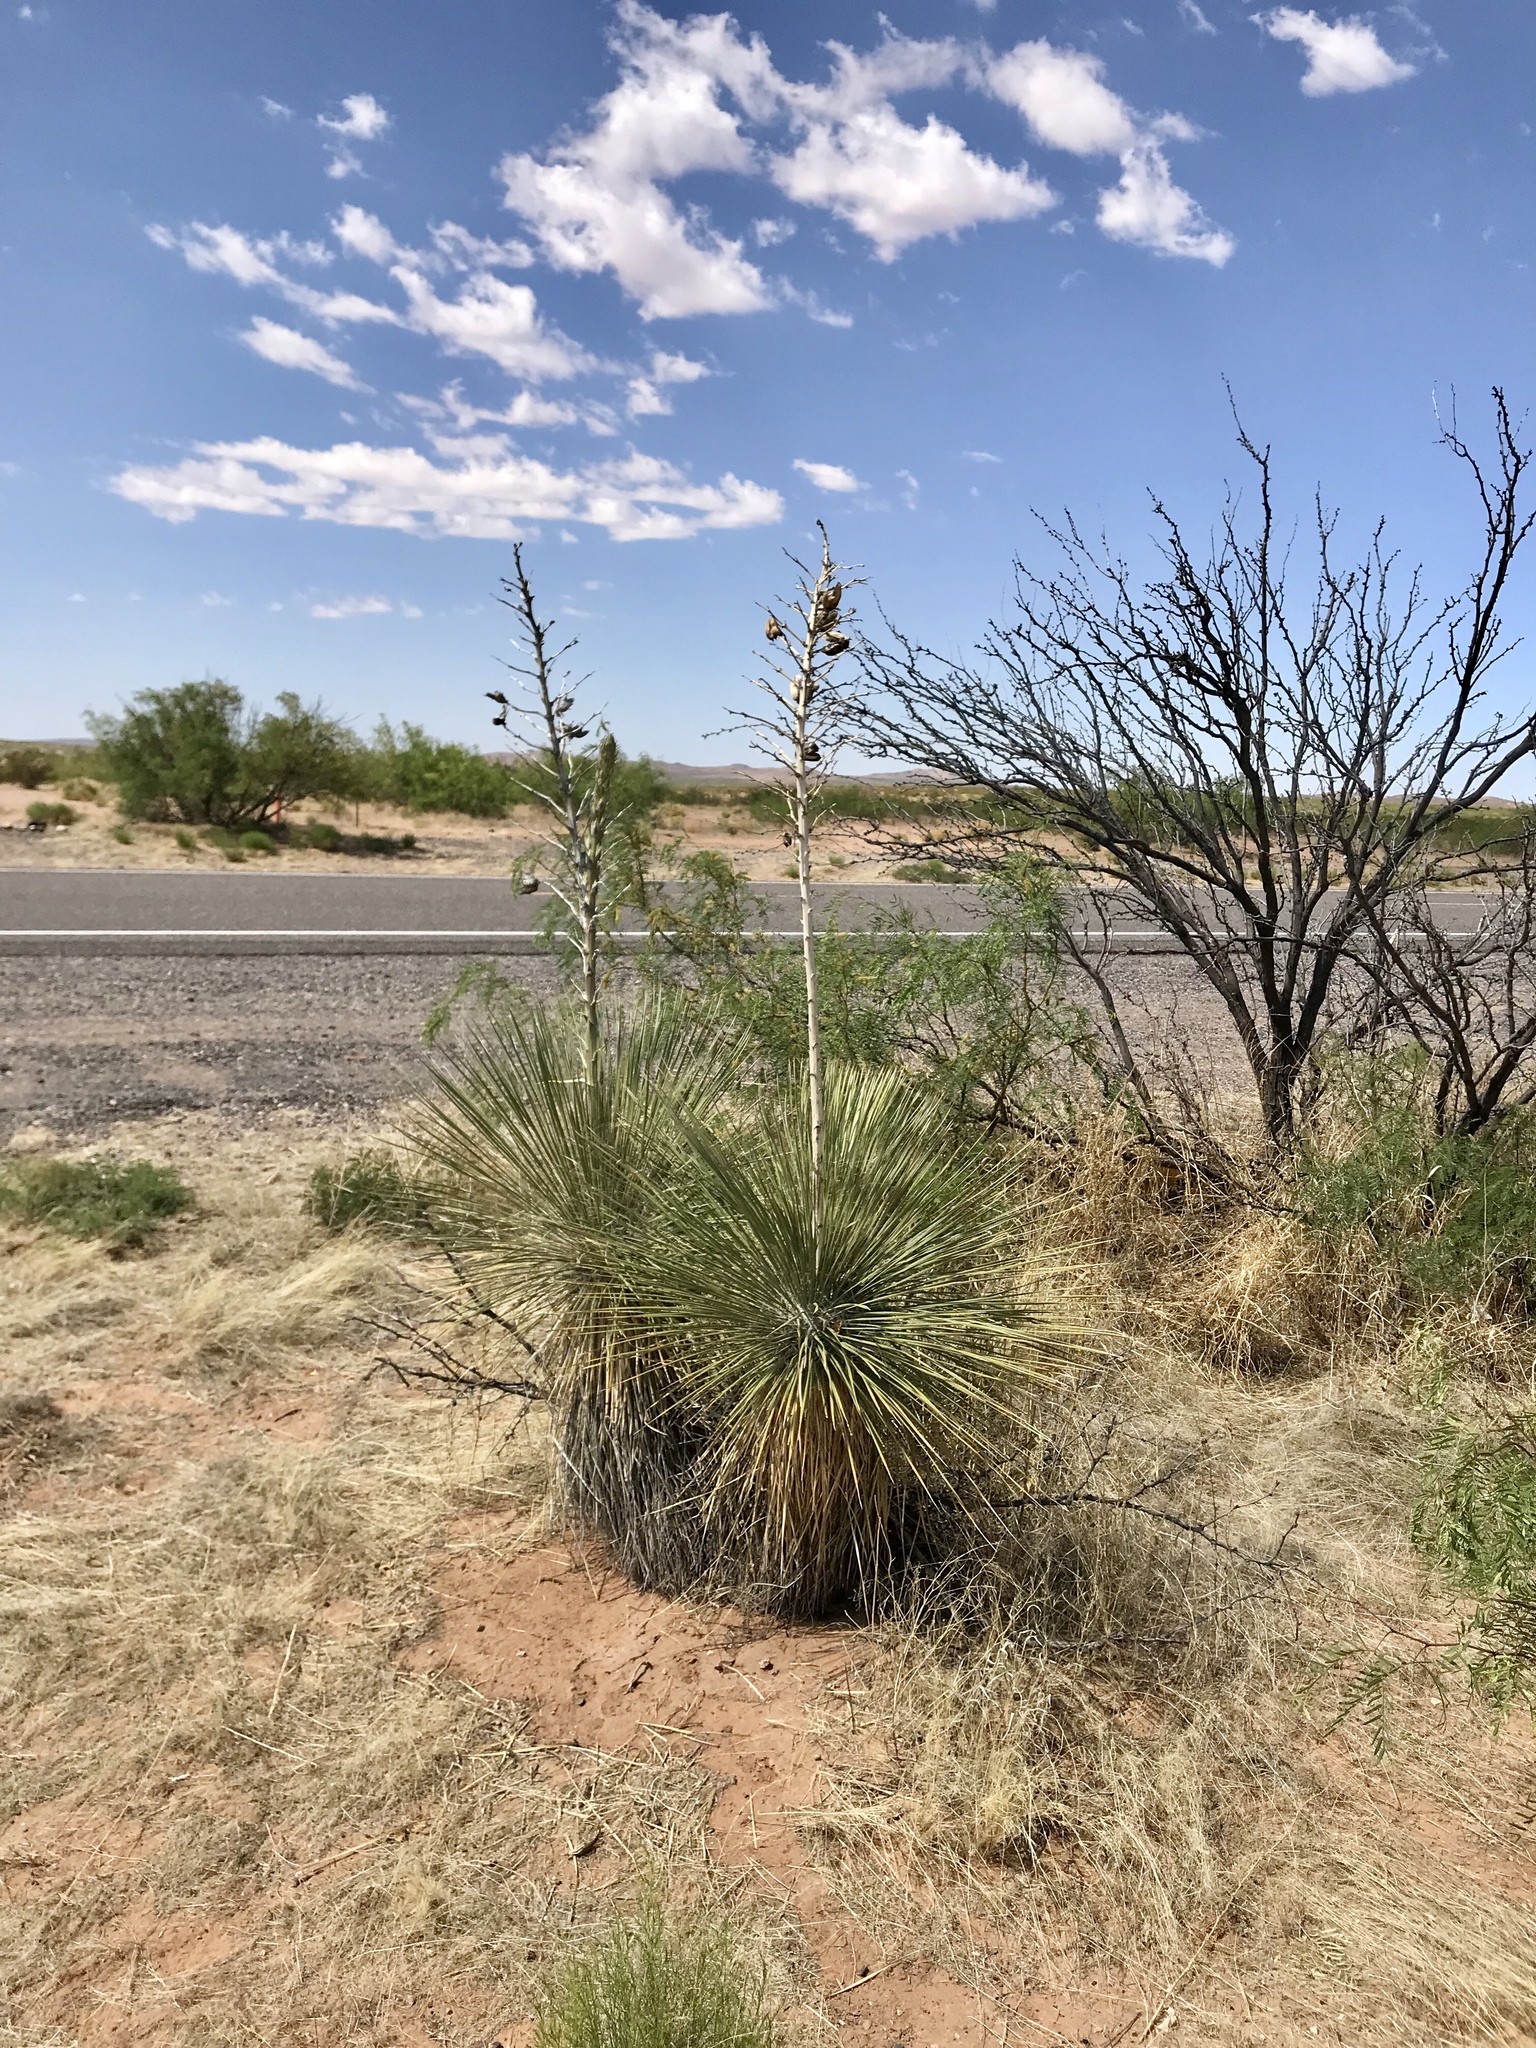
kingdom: Plantae
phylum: Tracheophyta
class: Liliopsida
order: Asparagales
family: Asparagaceae
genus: Yucca
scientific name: Yucca elata
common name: Palmella
